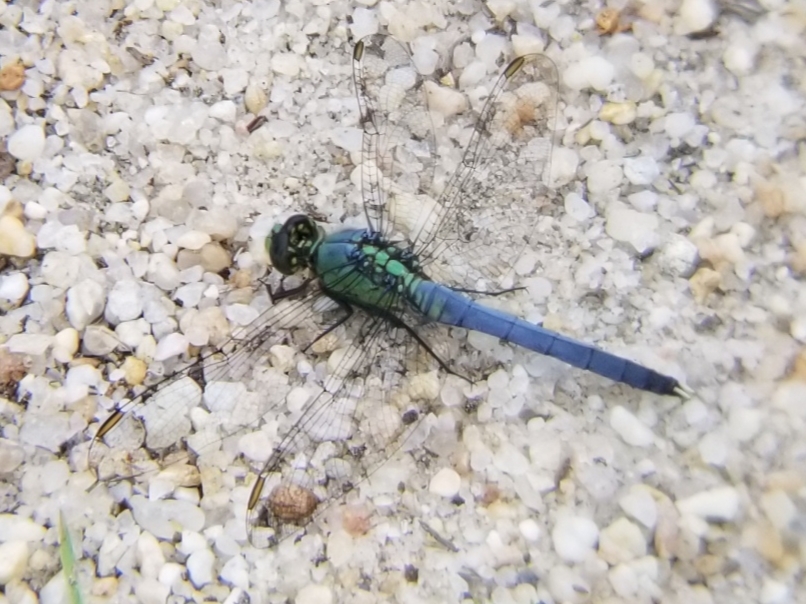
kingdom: Animalia
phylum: Arthropoda
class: Insecta
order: Odonata
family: Libellulidae
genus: Erythemis
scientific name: Erythemis simplicicollis
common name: Eastern pondhawk
